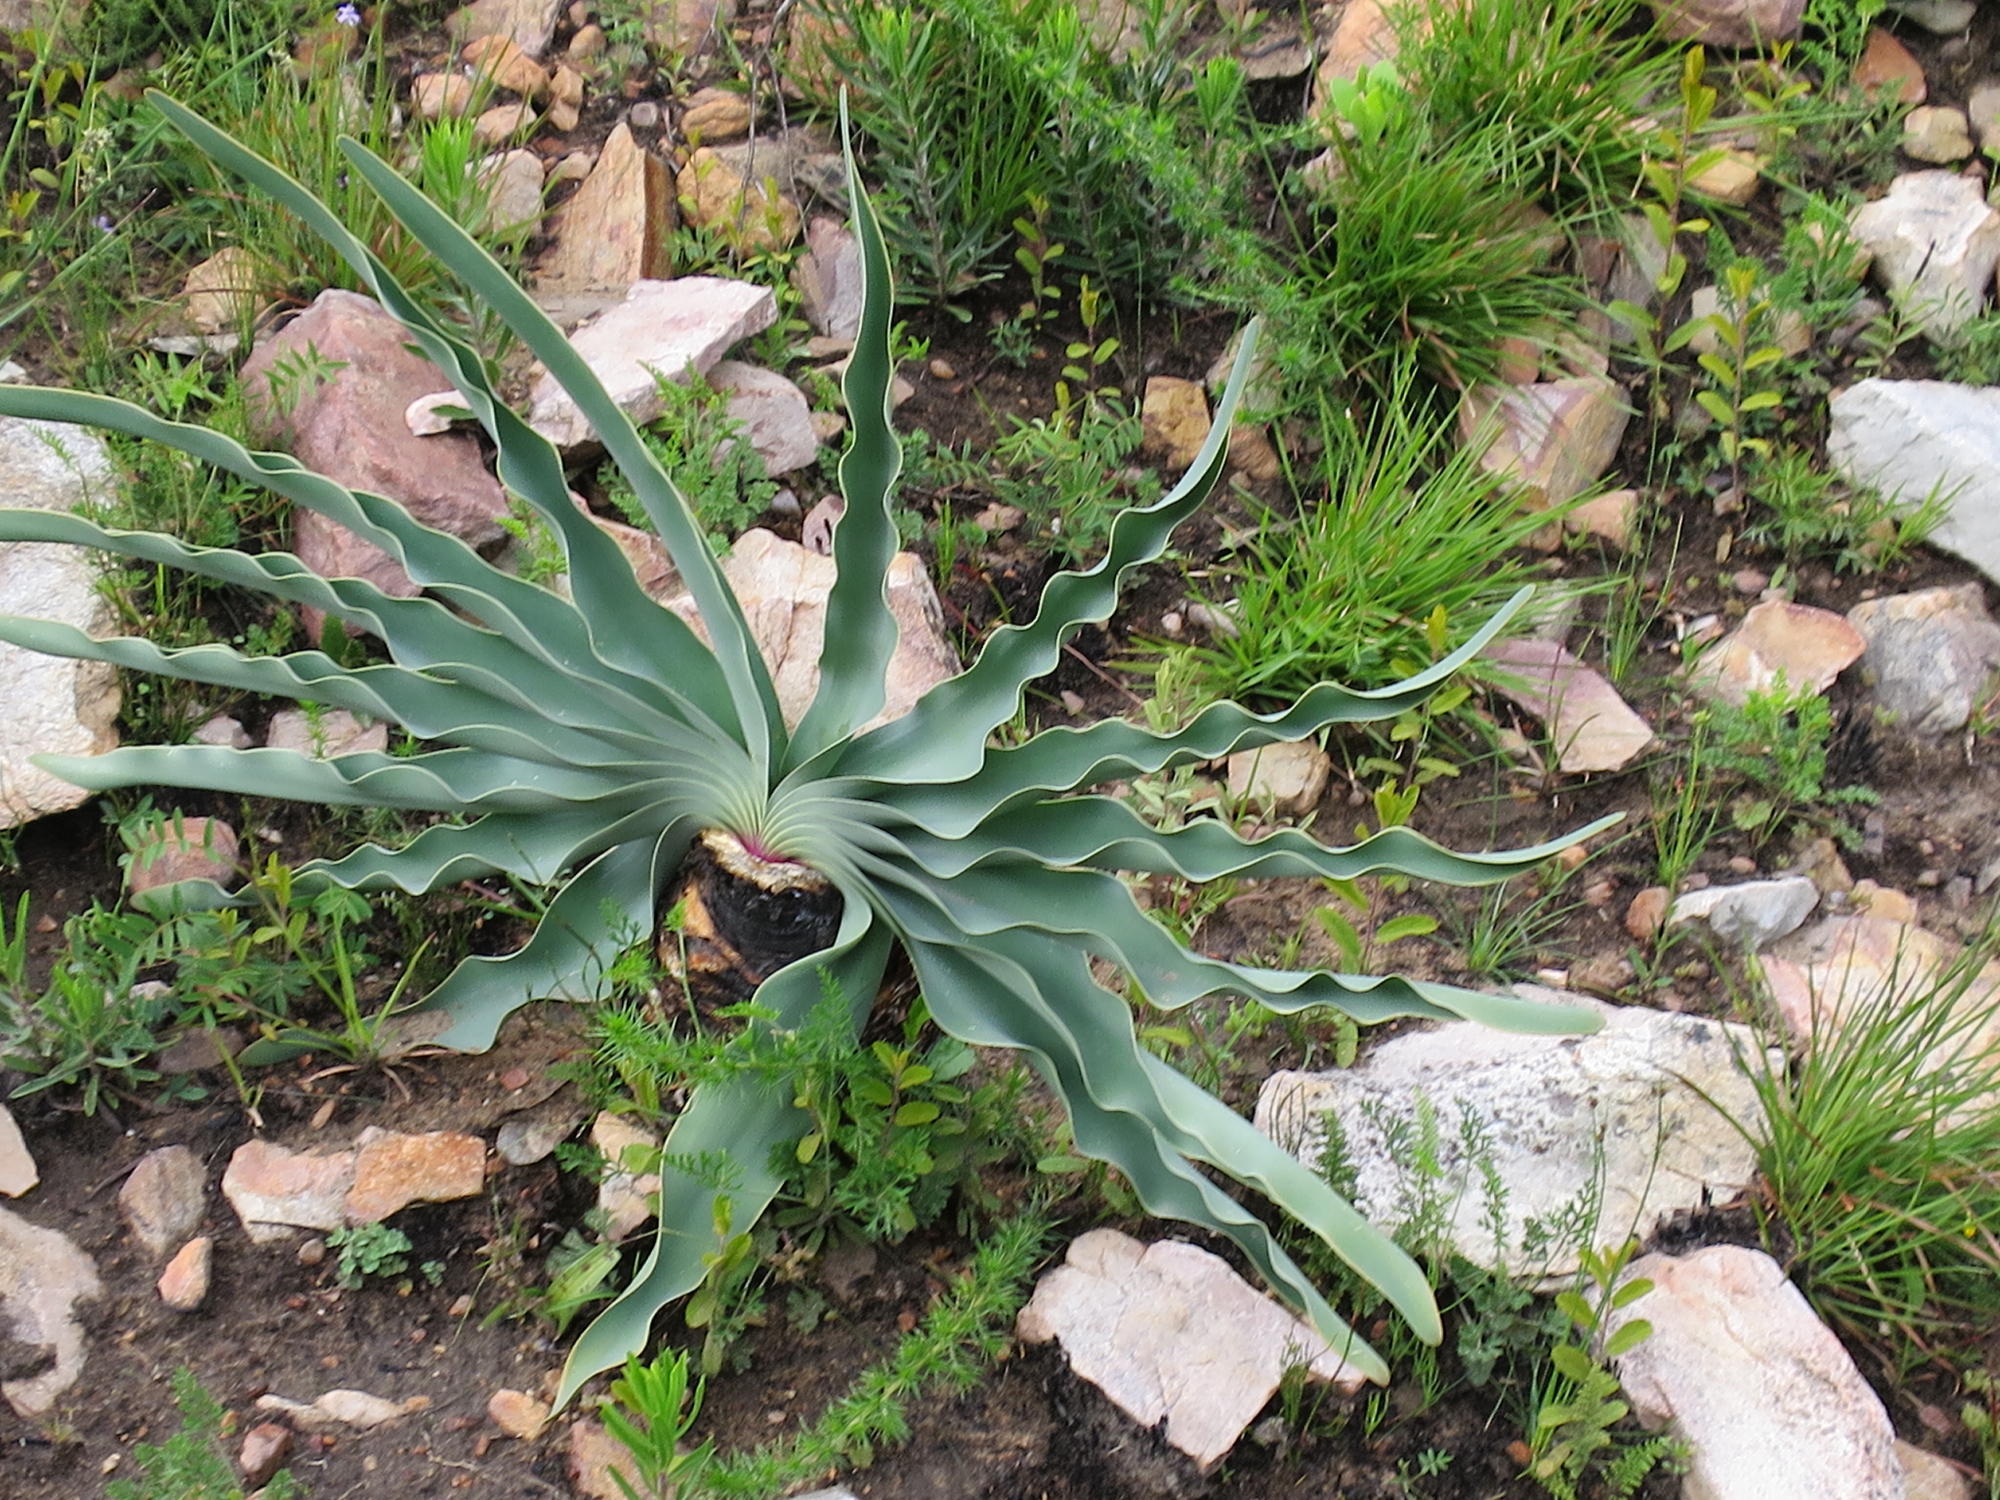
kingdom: Plantae
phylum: Tracheophyta
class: Liliopsida
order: Asparagales
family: Amaryllidaceae
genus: Boophone
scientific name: Boophone disticha
